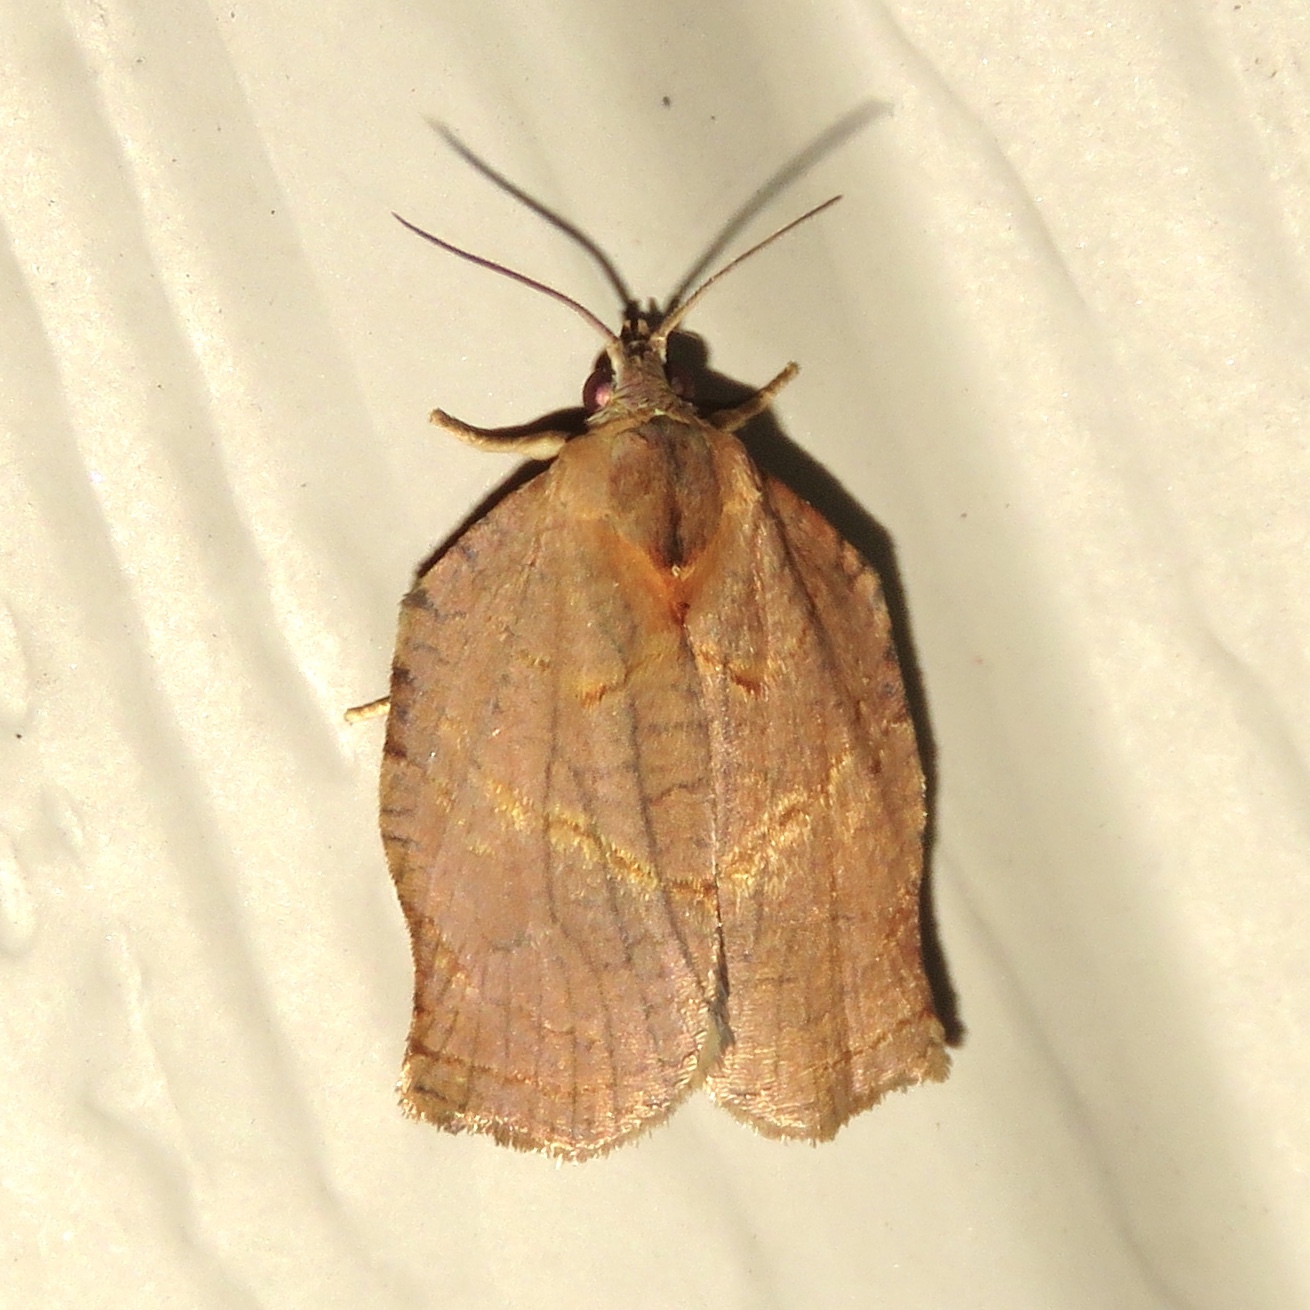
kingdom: Animalia
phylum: Arthropoda
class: Insecta
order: Lepidoptera
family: Tortricidae
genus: Archips
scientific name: Archips purpurana
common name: Omnivorous leafroller
